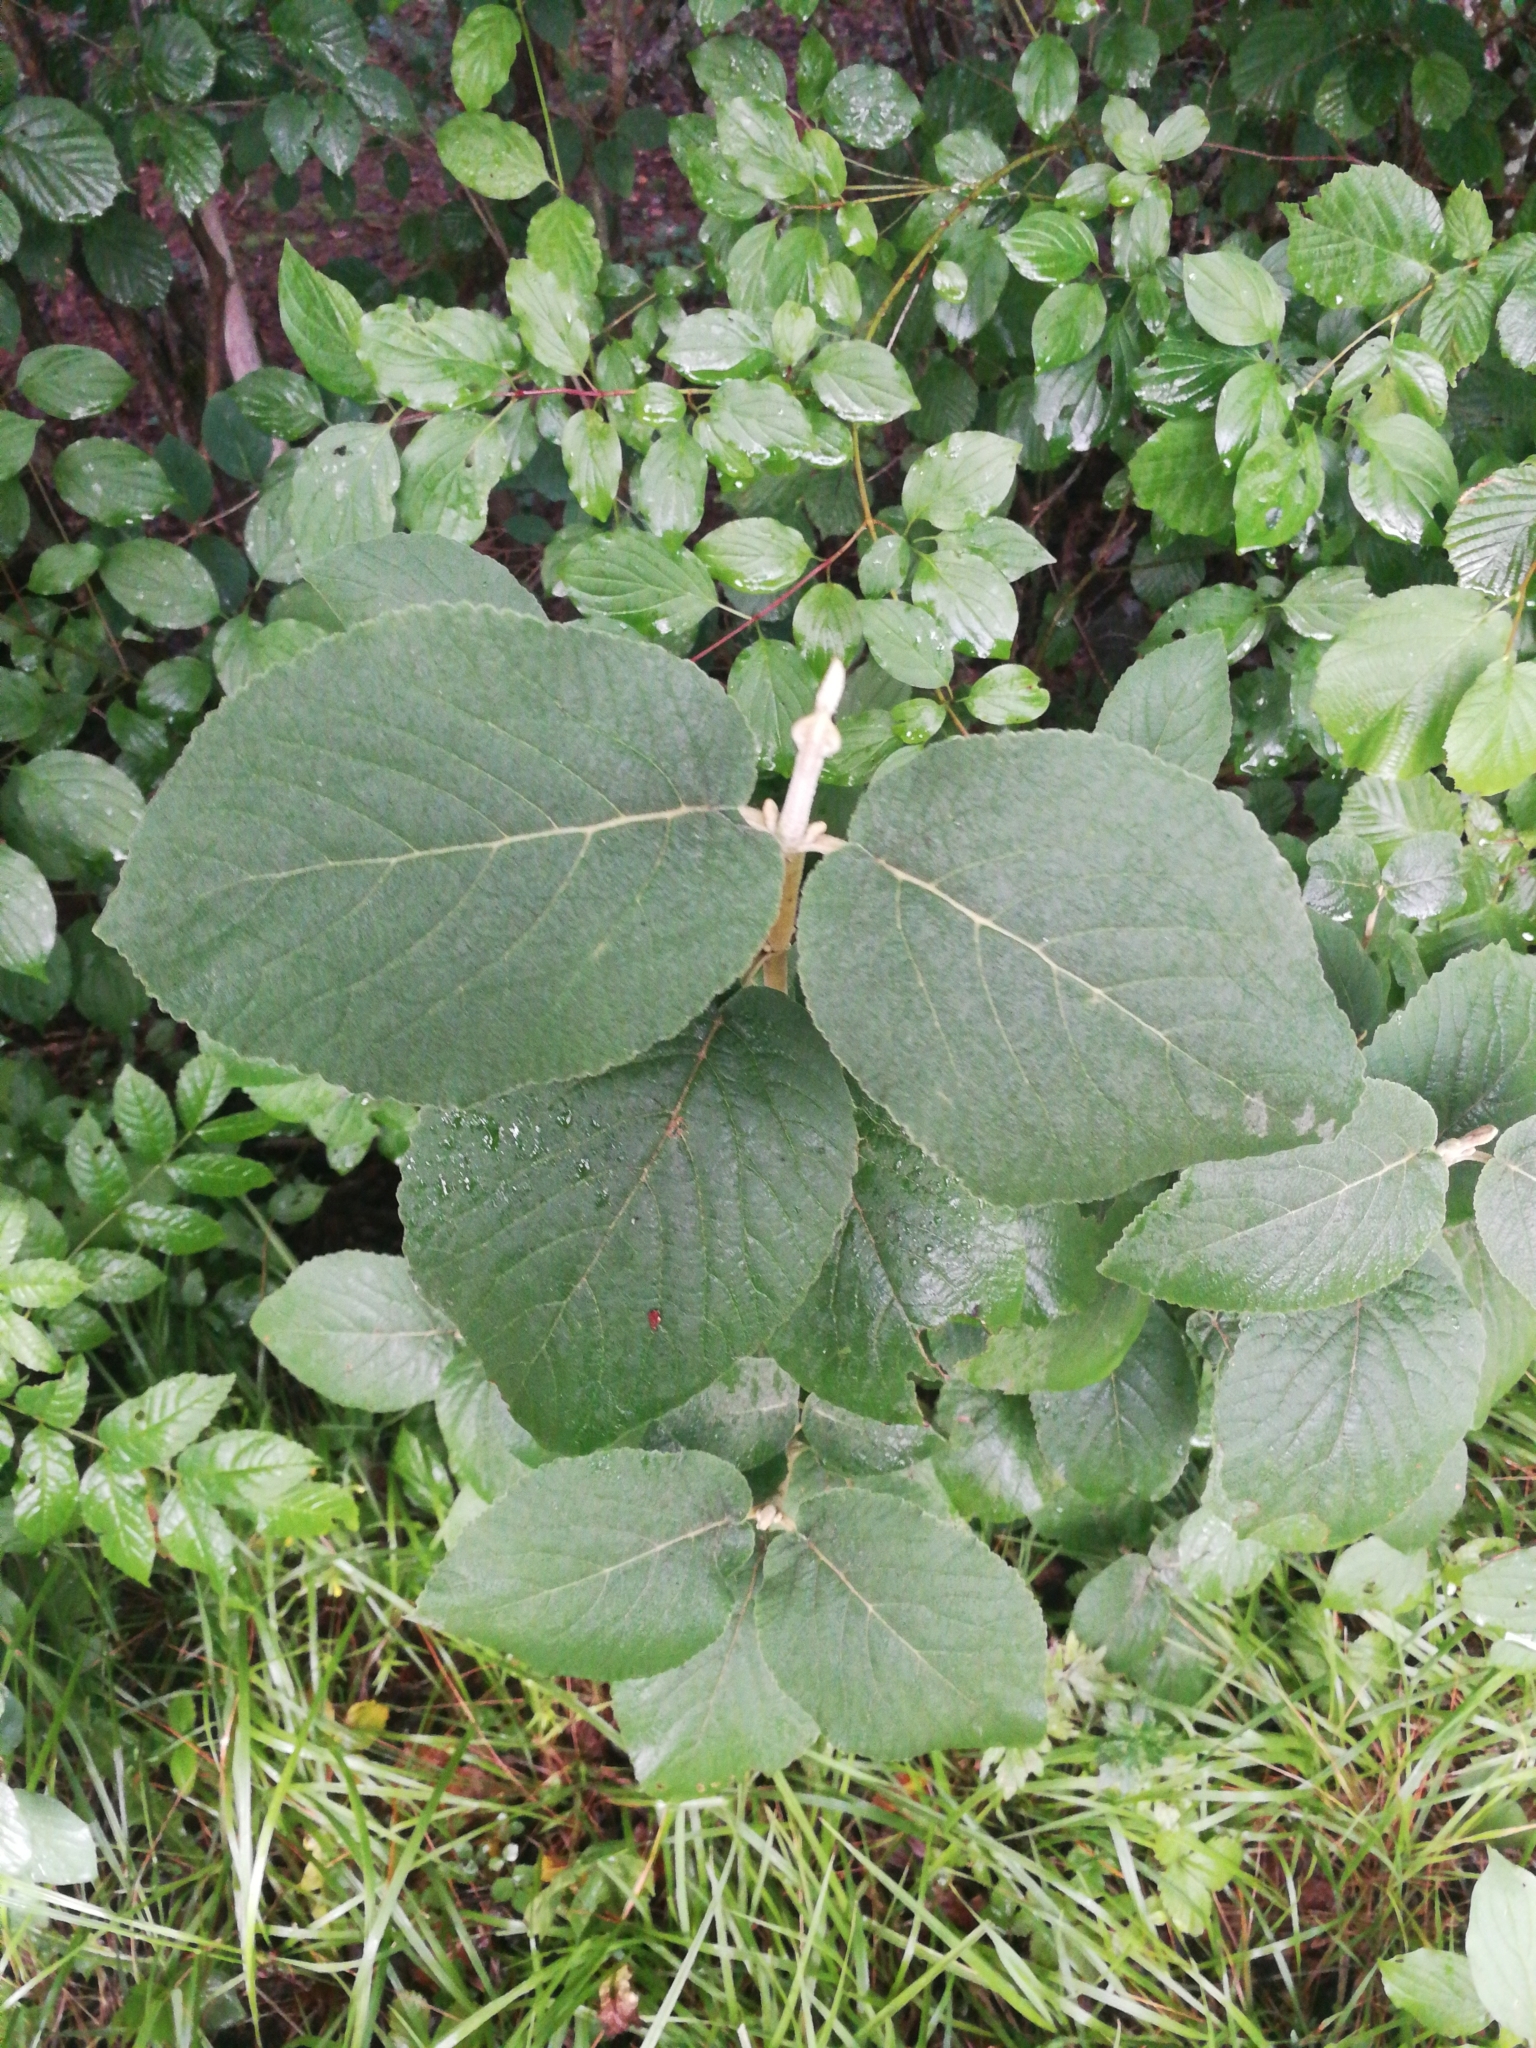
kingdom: Plantae
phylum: Tracheophyta
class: Magnoliopsida
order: Dipsacales
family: Viburnaceae
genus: Viburnum
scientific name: Viburnum lantana
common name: Wayfaring tree
